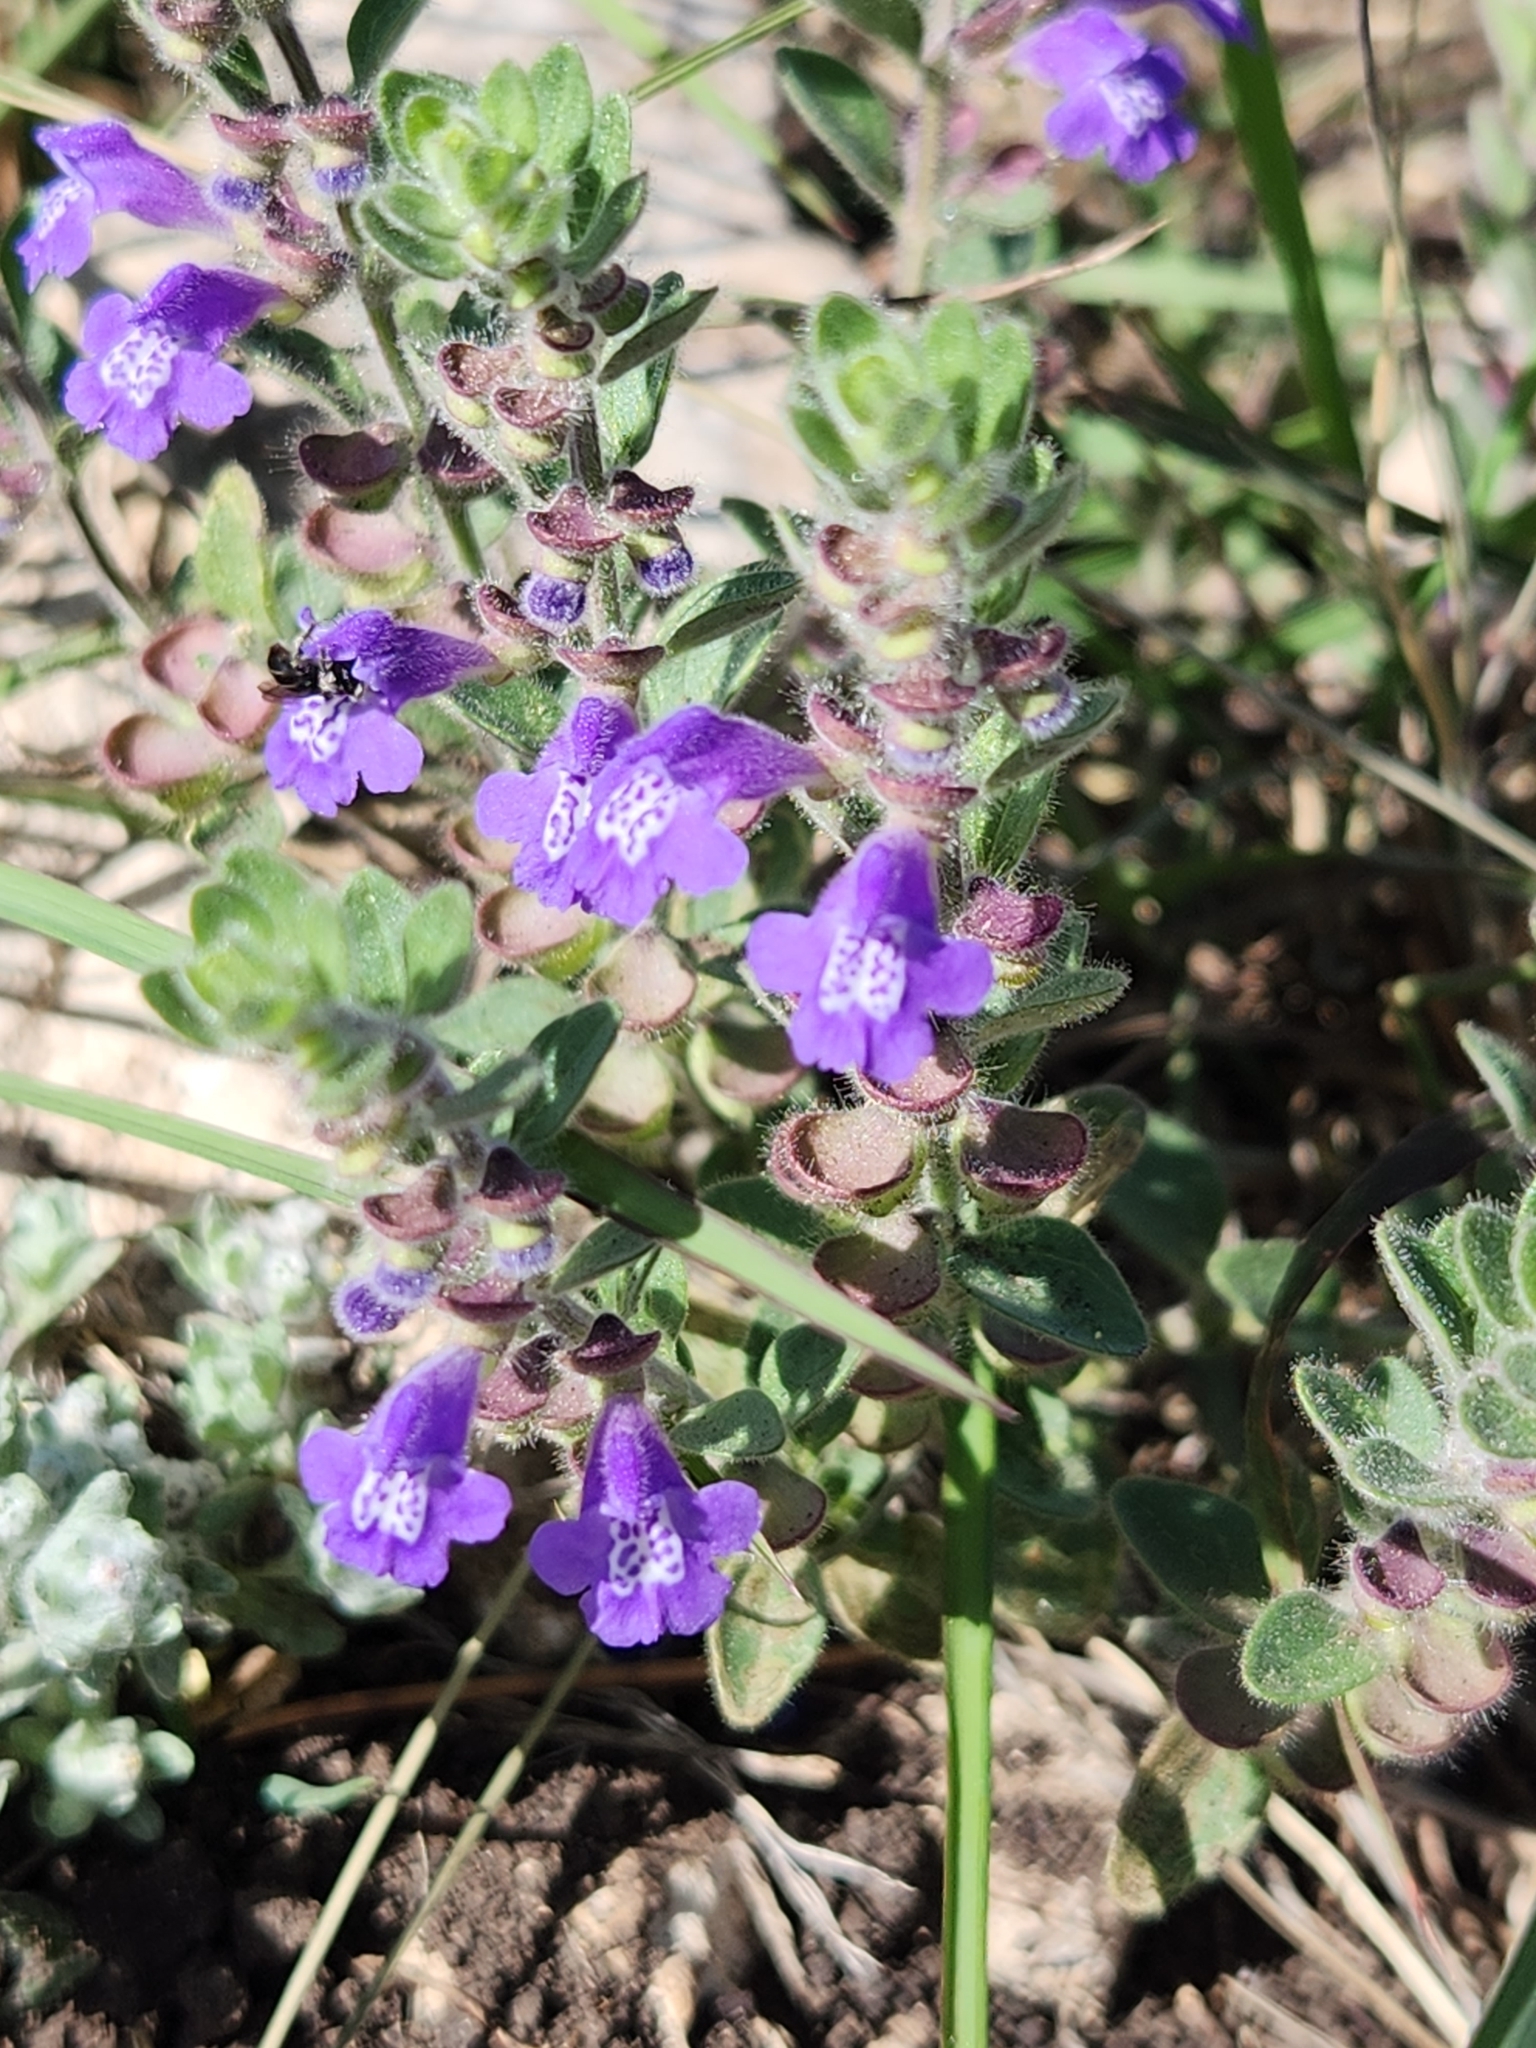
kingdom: Plantae
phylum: Tracheophyta
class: Magnoliopsida
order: Lamiales
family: Lamiaceae
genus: Scutellaria
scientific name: Scutellaria drummondii
